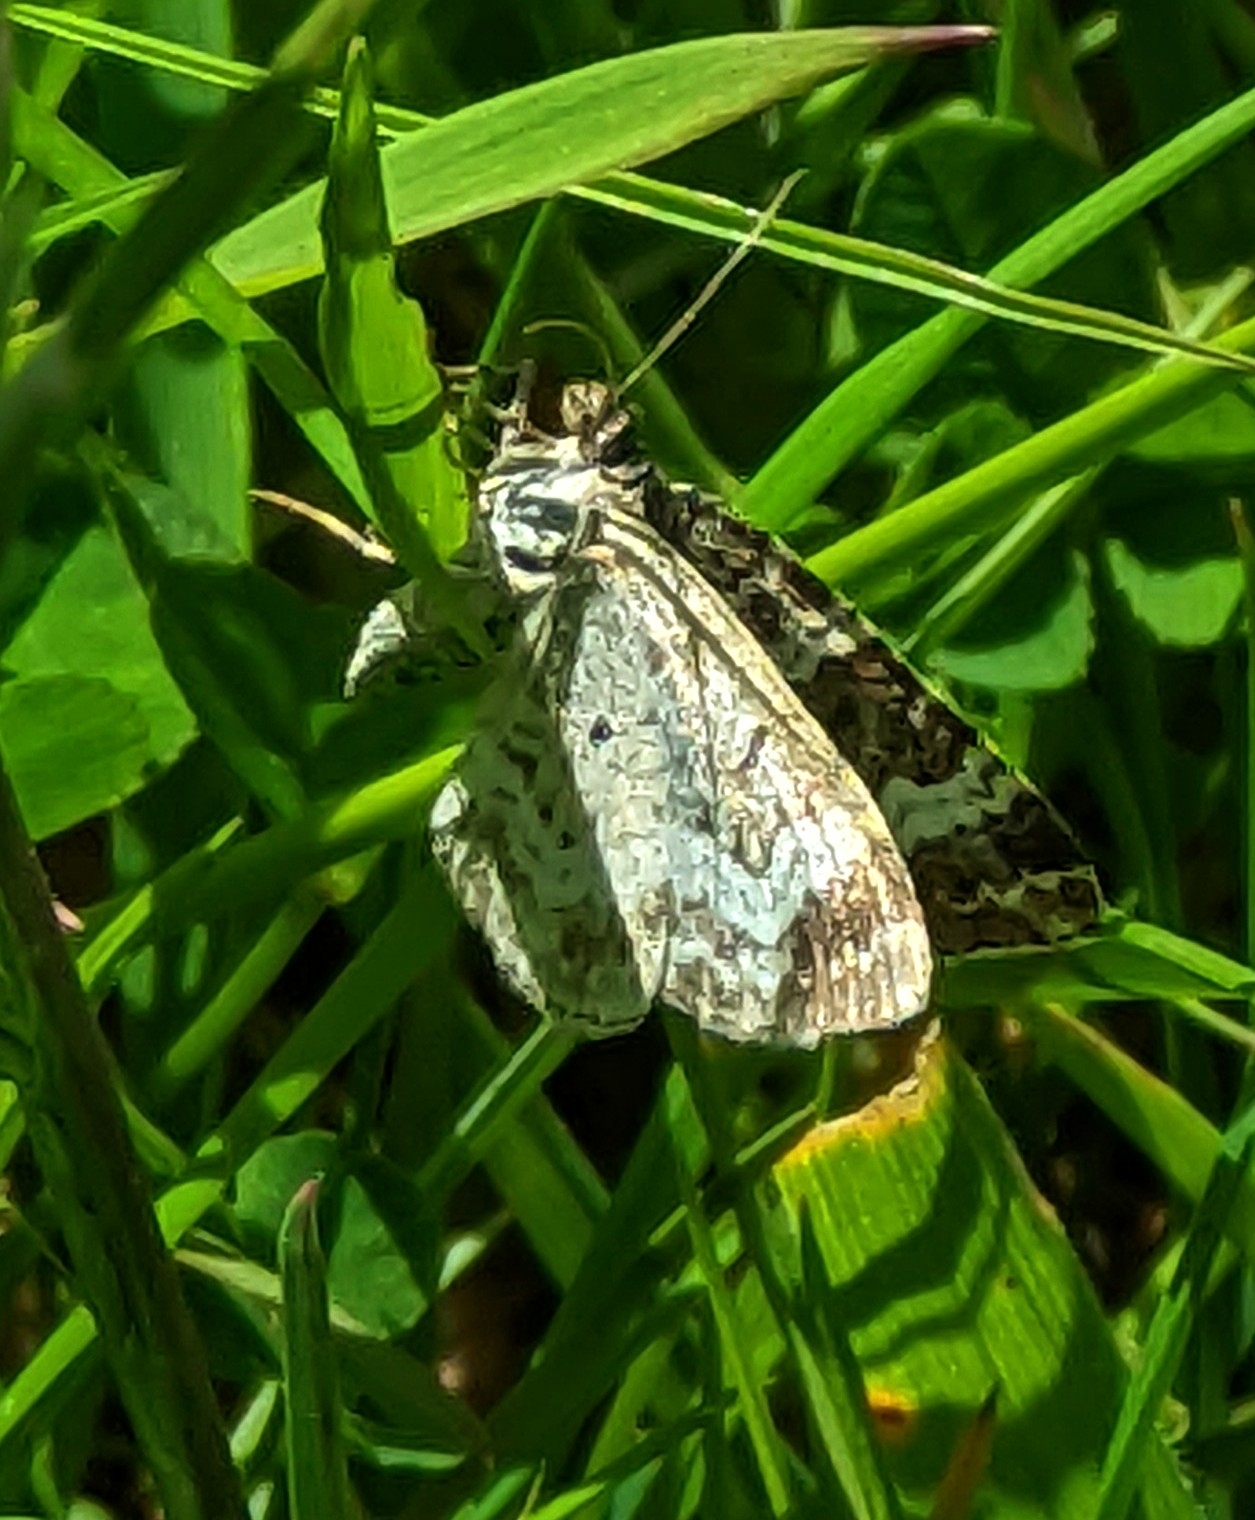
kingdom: Animalia
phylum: Arthropoda
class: Insecta
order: Lepidoptera
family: Geometridae
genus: Epirrhoe
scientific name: Epirrhoe alternata
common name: Common carpet
